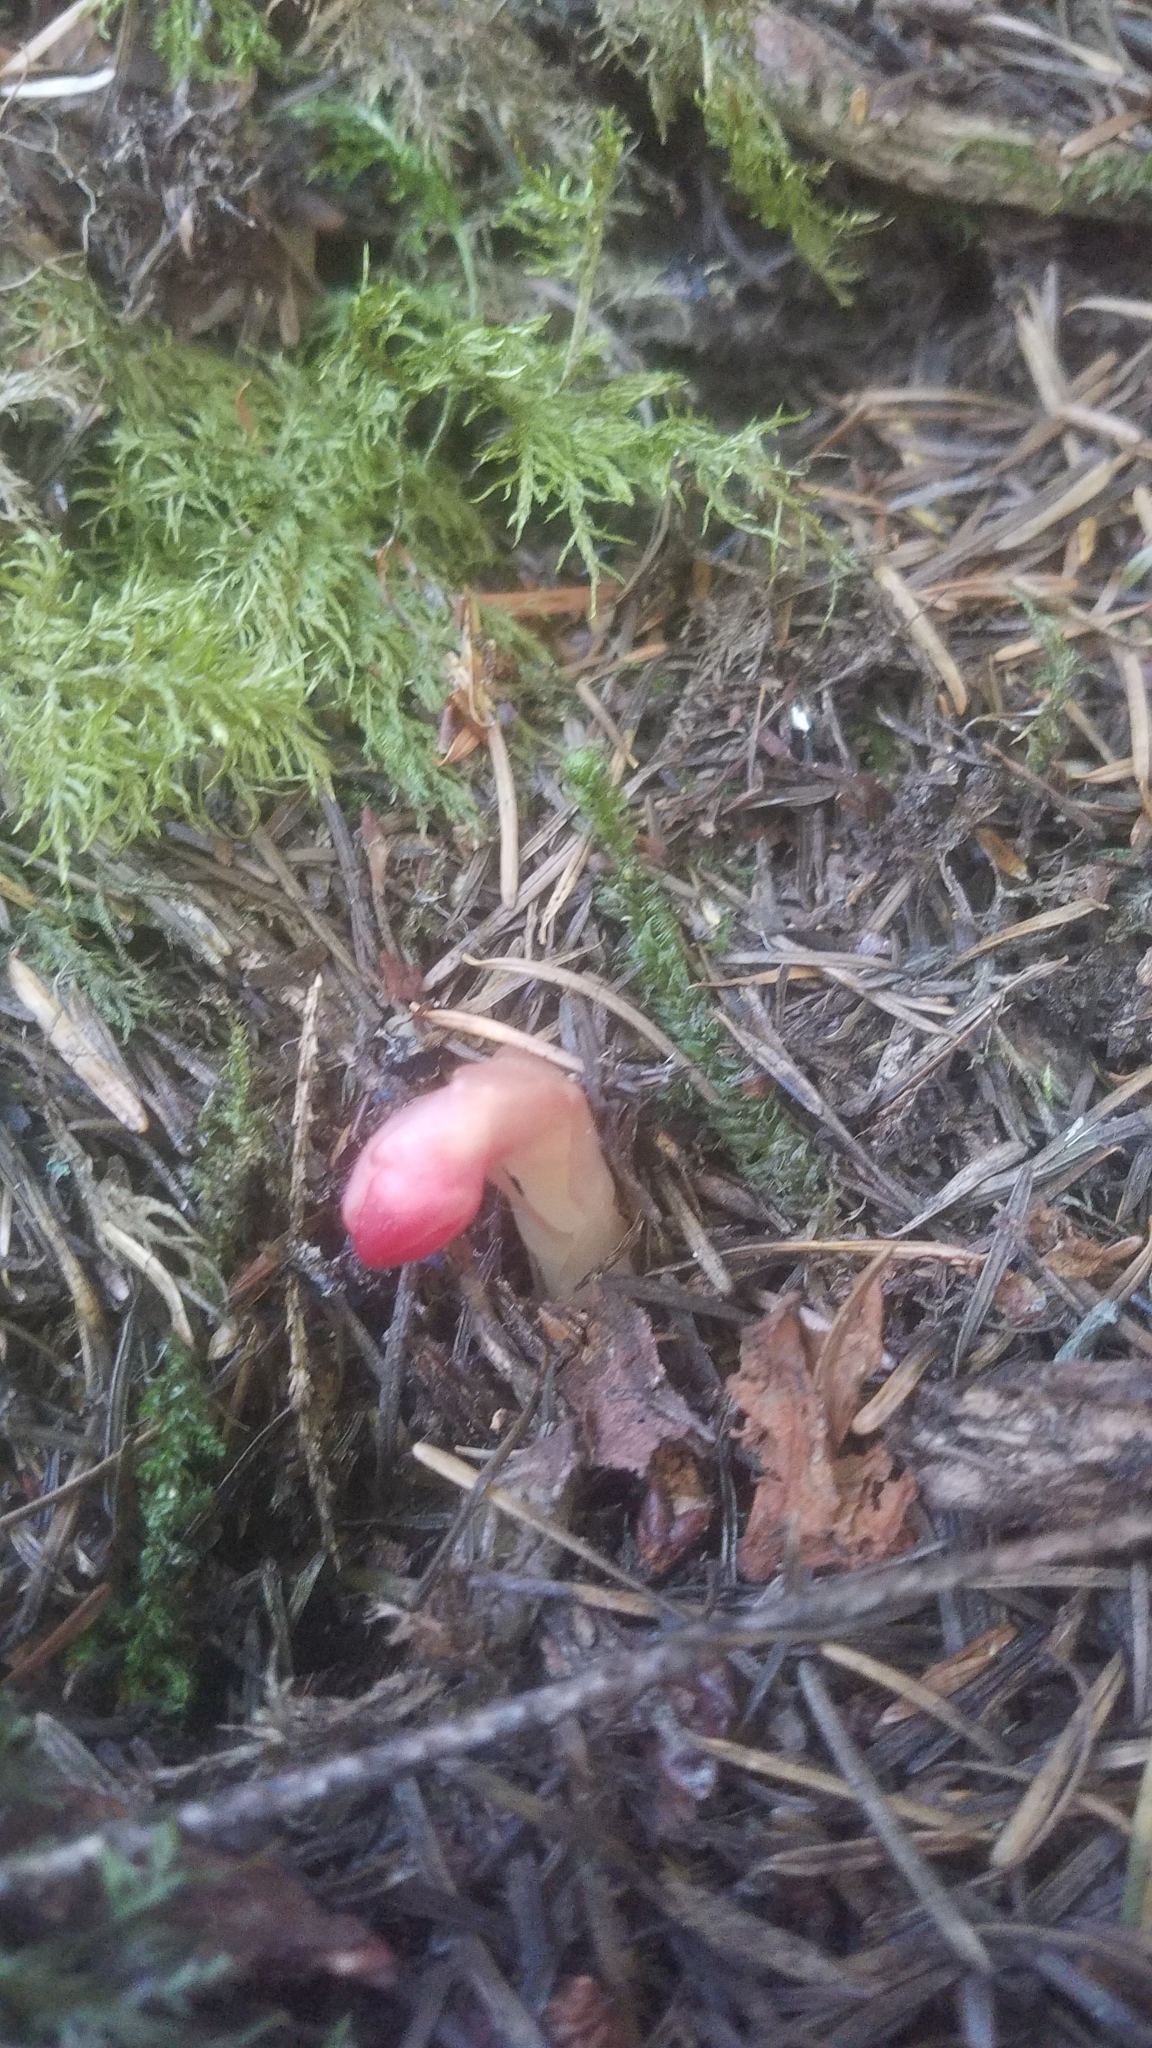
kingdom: Plantae
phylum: Tracheophyta
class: Magnoliopsida
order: Ericales
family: Ericaceae
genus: Hypopitys
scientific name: Hypopitys monotropa
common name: Yellow bird's-nest
